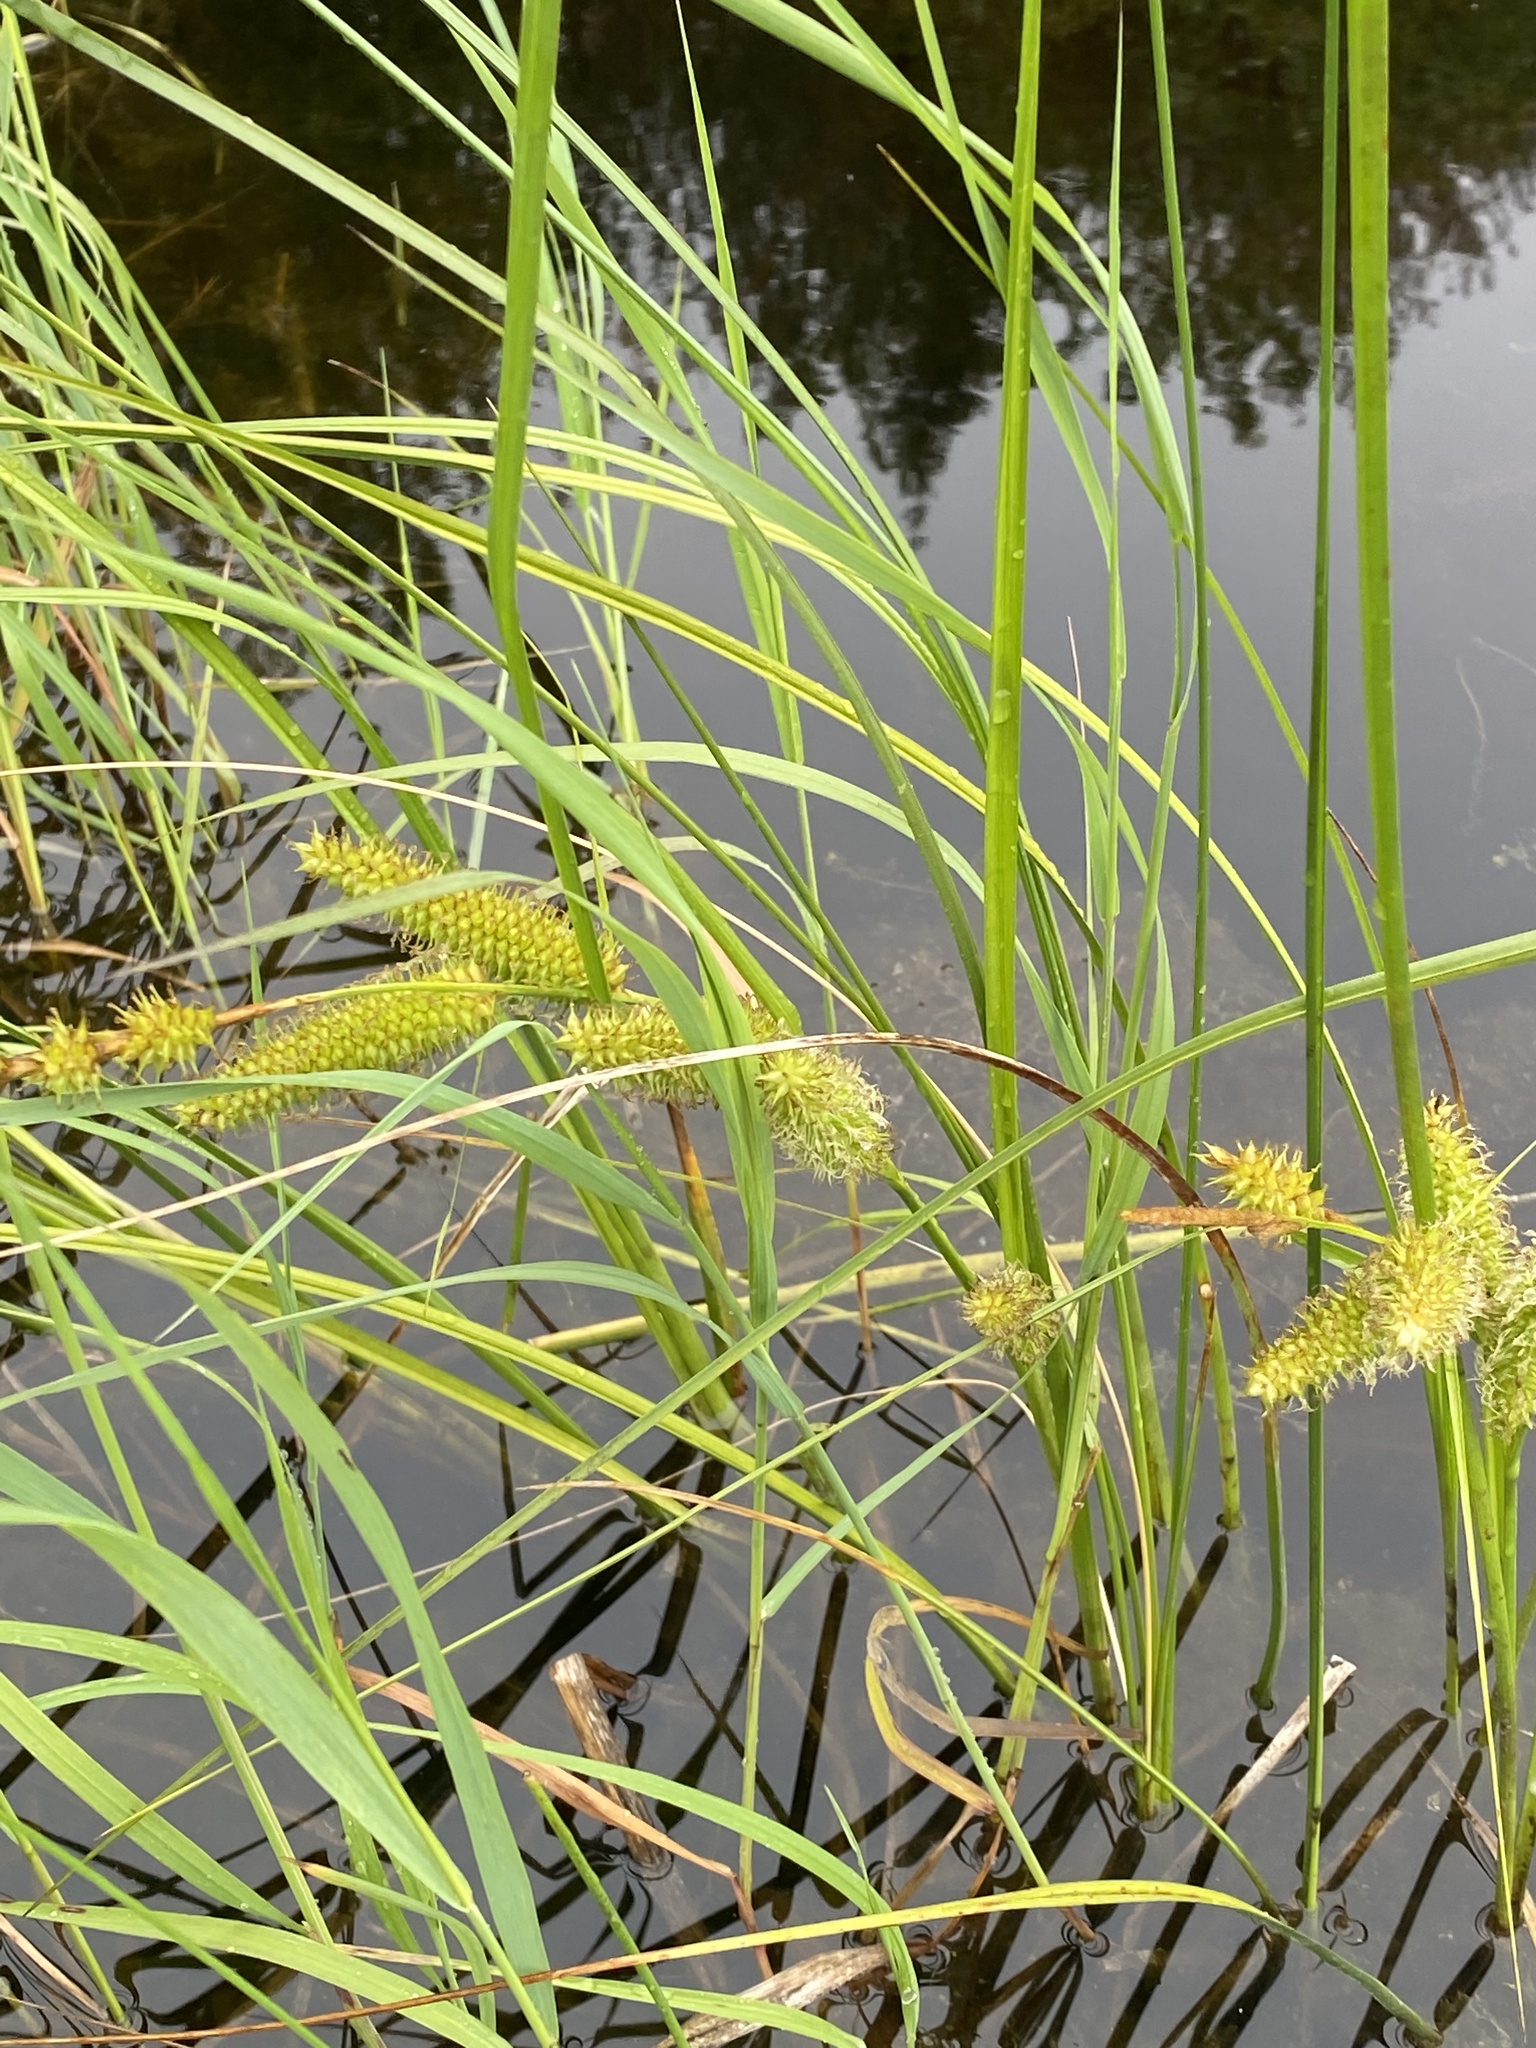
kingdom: Plantae
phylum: Tracheophyta
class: Liliopsida
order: Poales
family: Cyperaceae
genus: Carex
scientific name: Carex utriculata
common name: Beaked sedge
